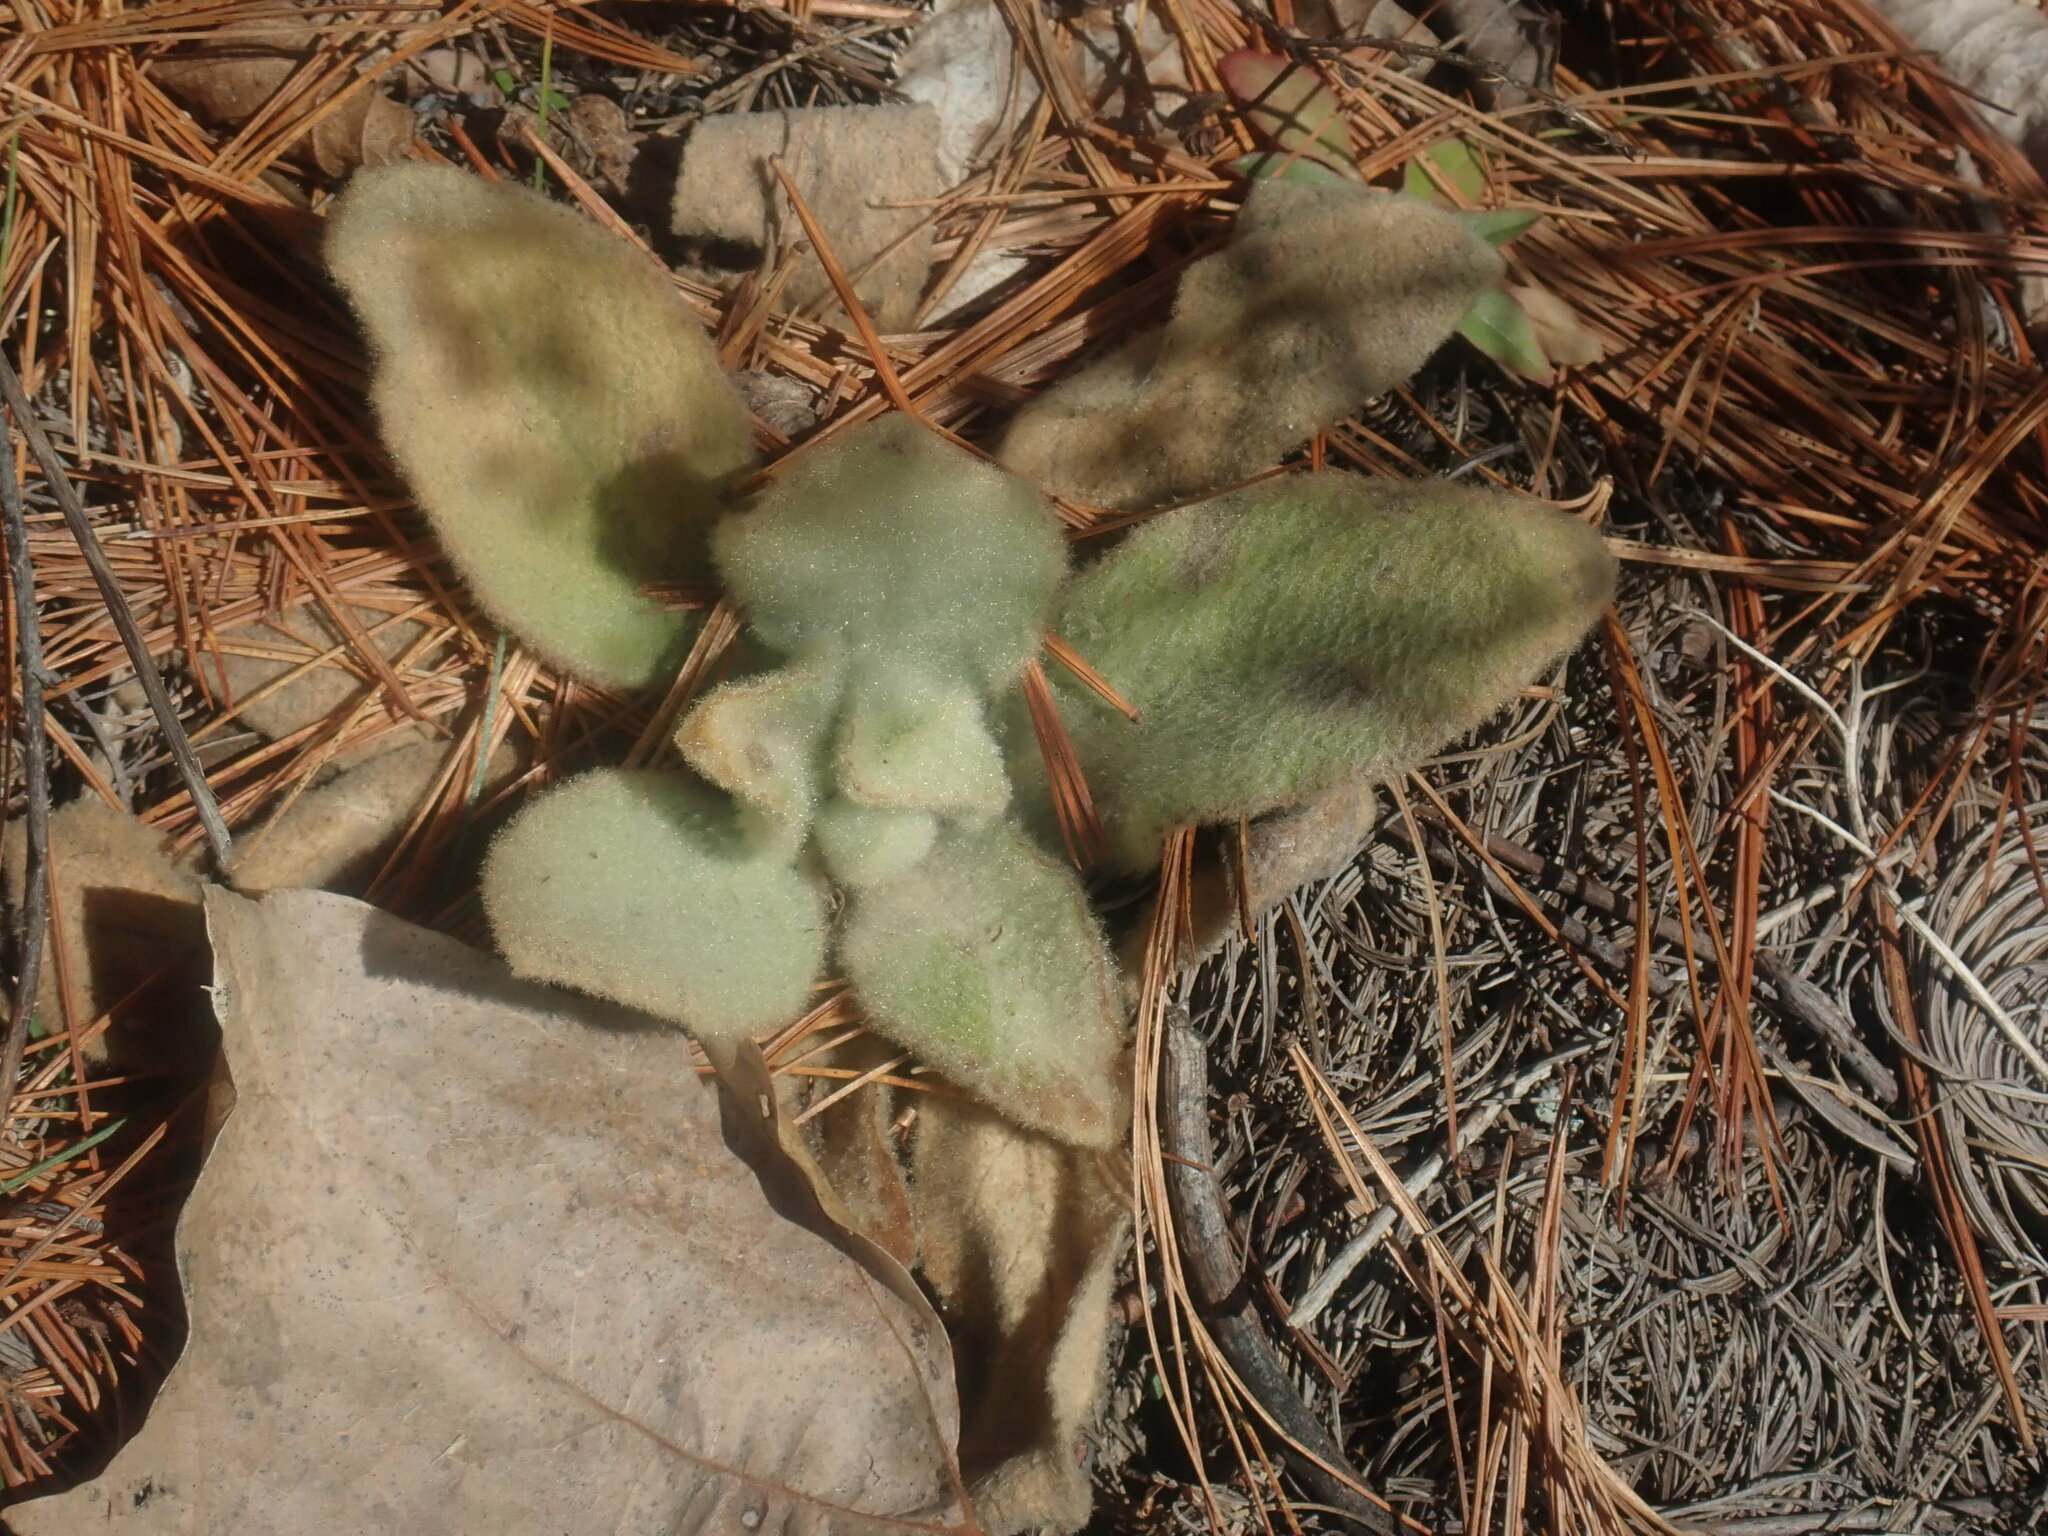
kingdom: Plantae
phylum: Tracheophyta
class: Magnoliopsida
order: Lamiales
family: Scrophulariaceae
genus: Verbascum
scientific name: Verbascum thapsus
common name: Common mullein
